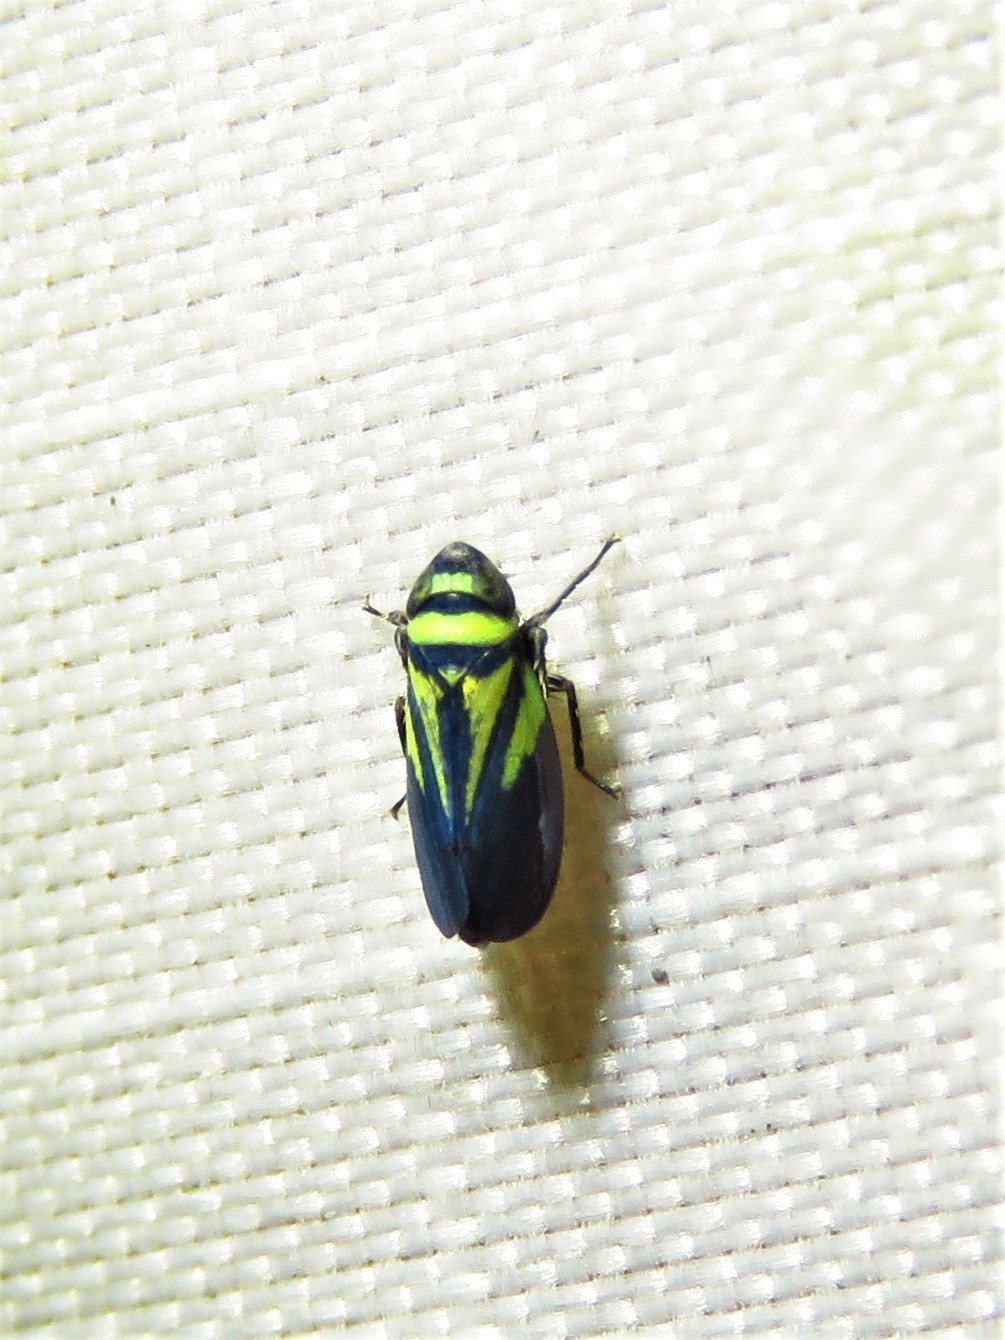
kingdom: Animalia
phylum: Arthropoda
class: Insecta
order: Hemiptera
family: Cicadellidae
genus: Stirellus
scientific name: Stirellus bicolor
